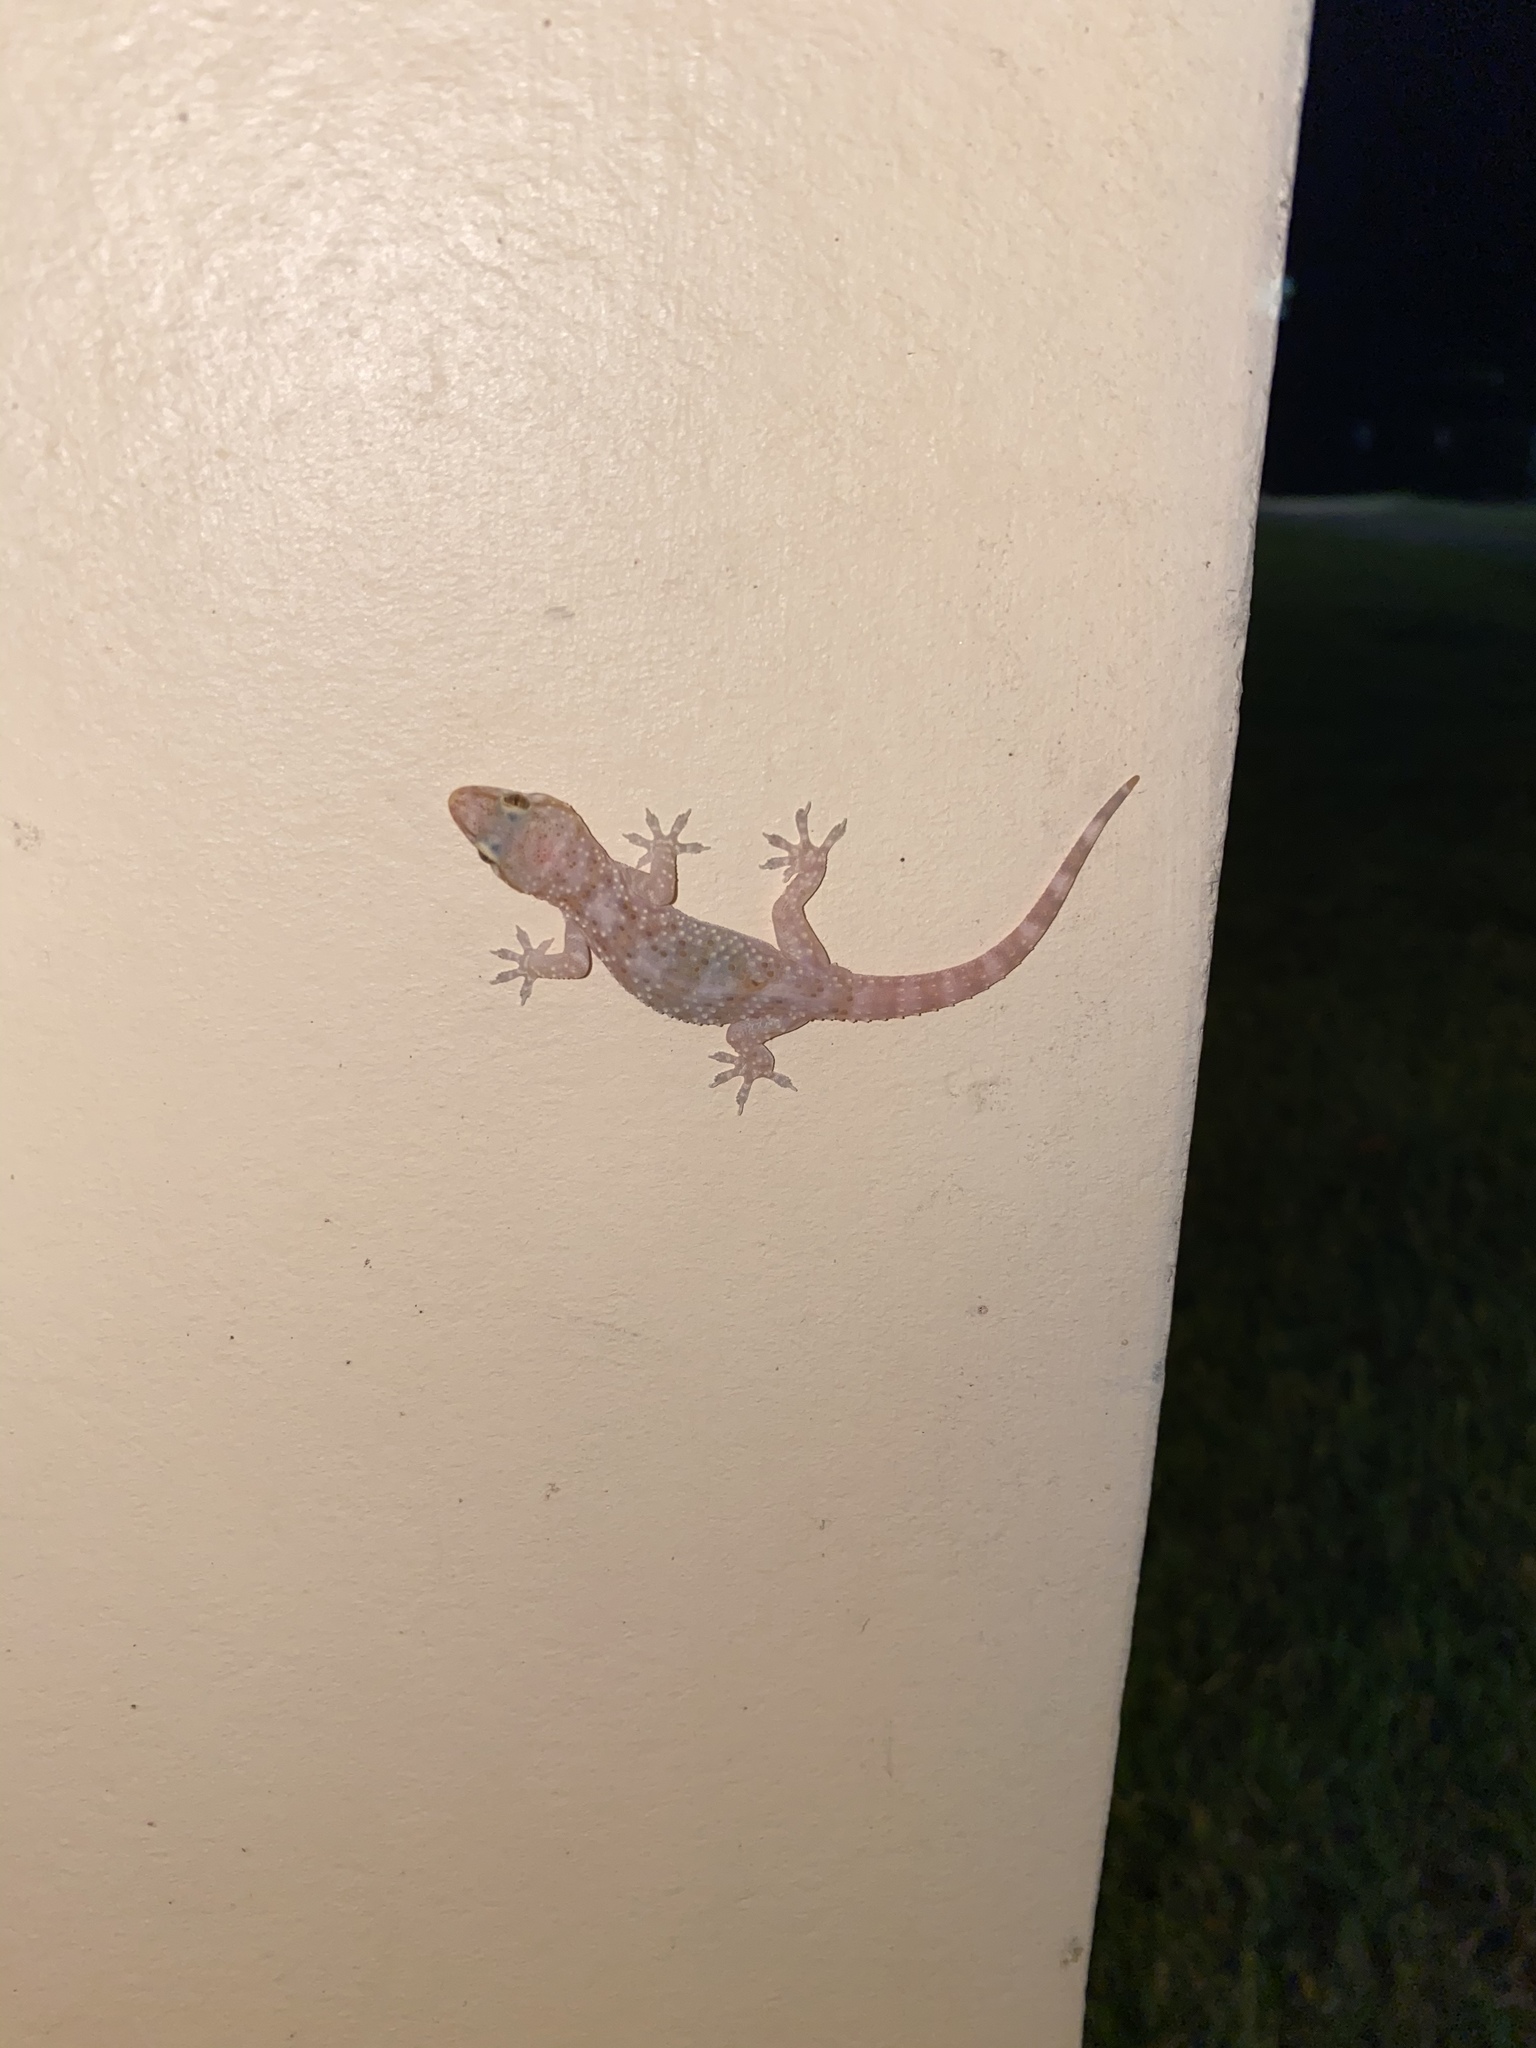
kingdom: Animalia
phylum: Chordata
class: Squamata
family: Gekkonidae
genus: Hemidactylus
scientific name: Hemidactylus turcicus
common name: Turkish gecko
